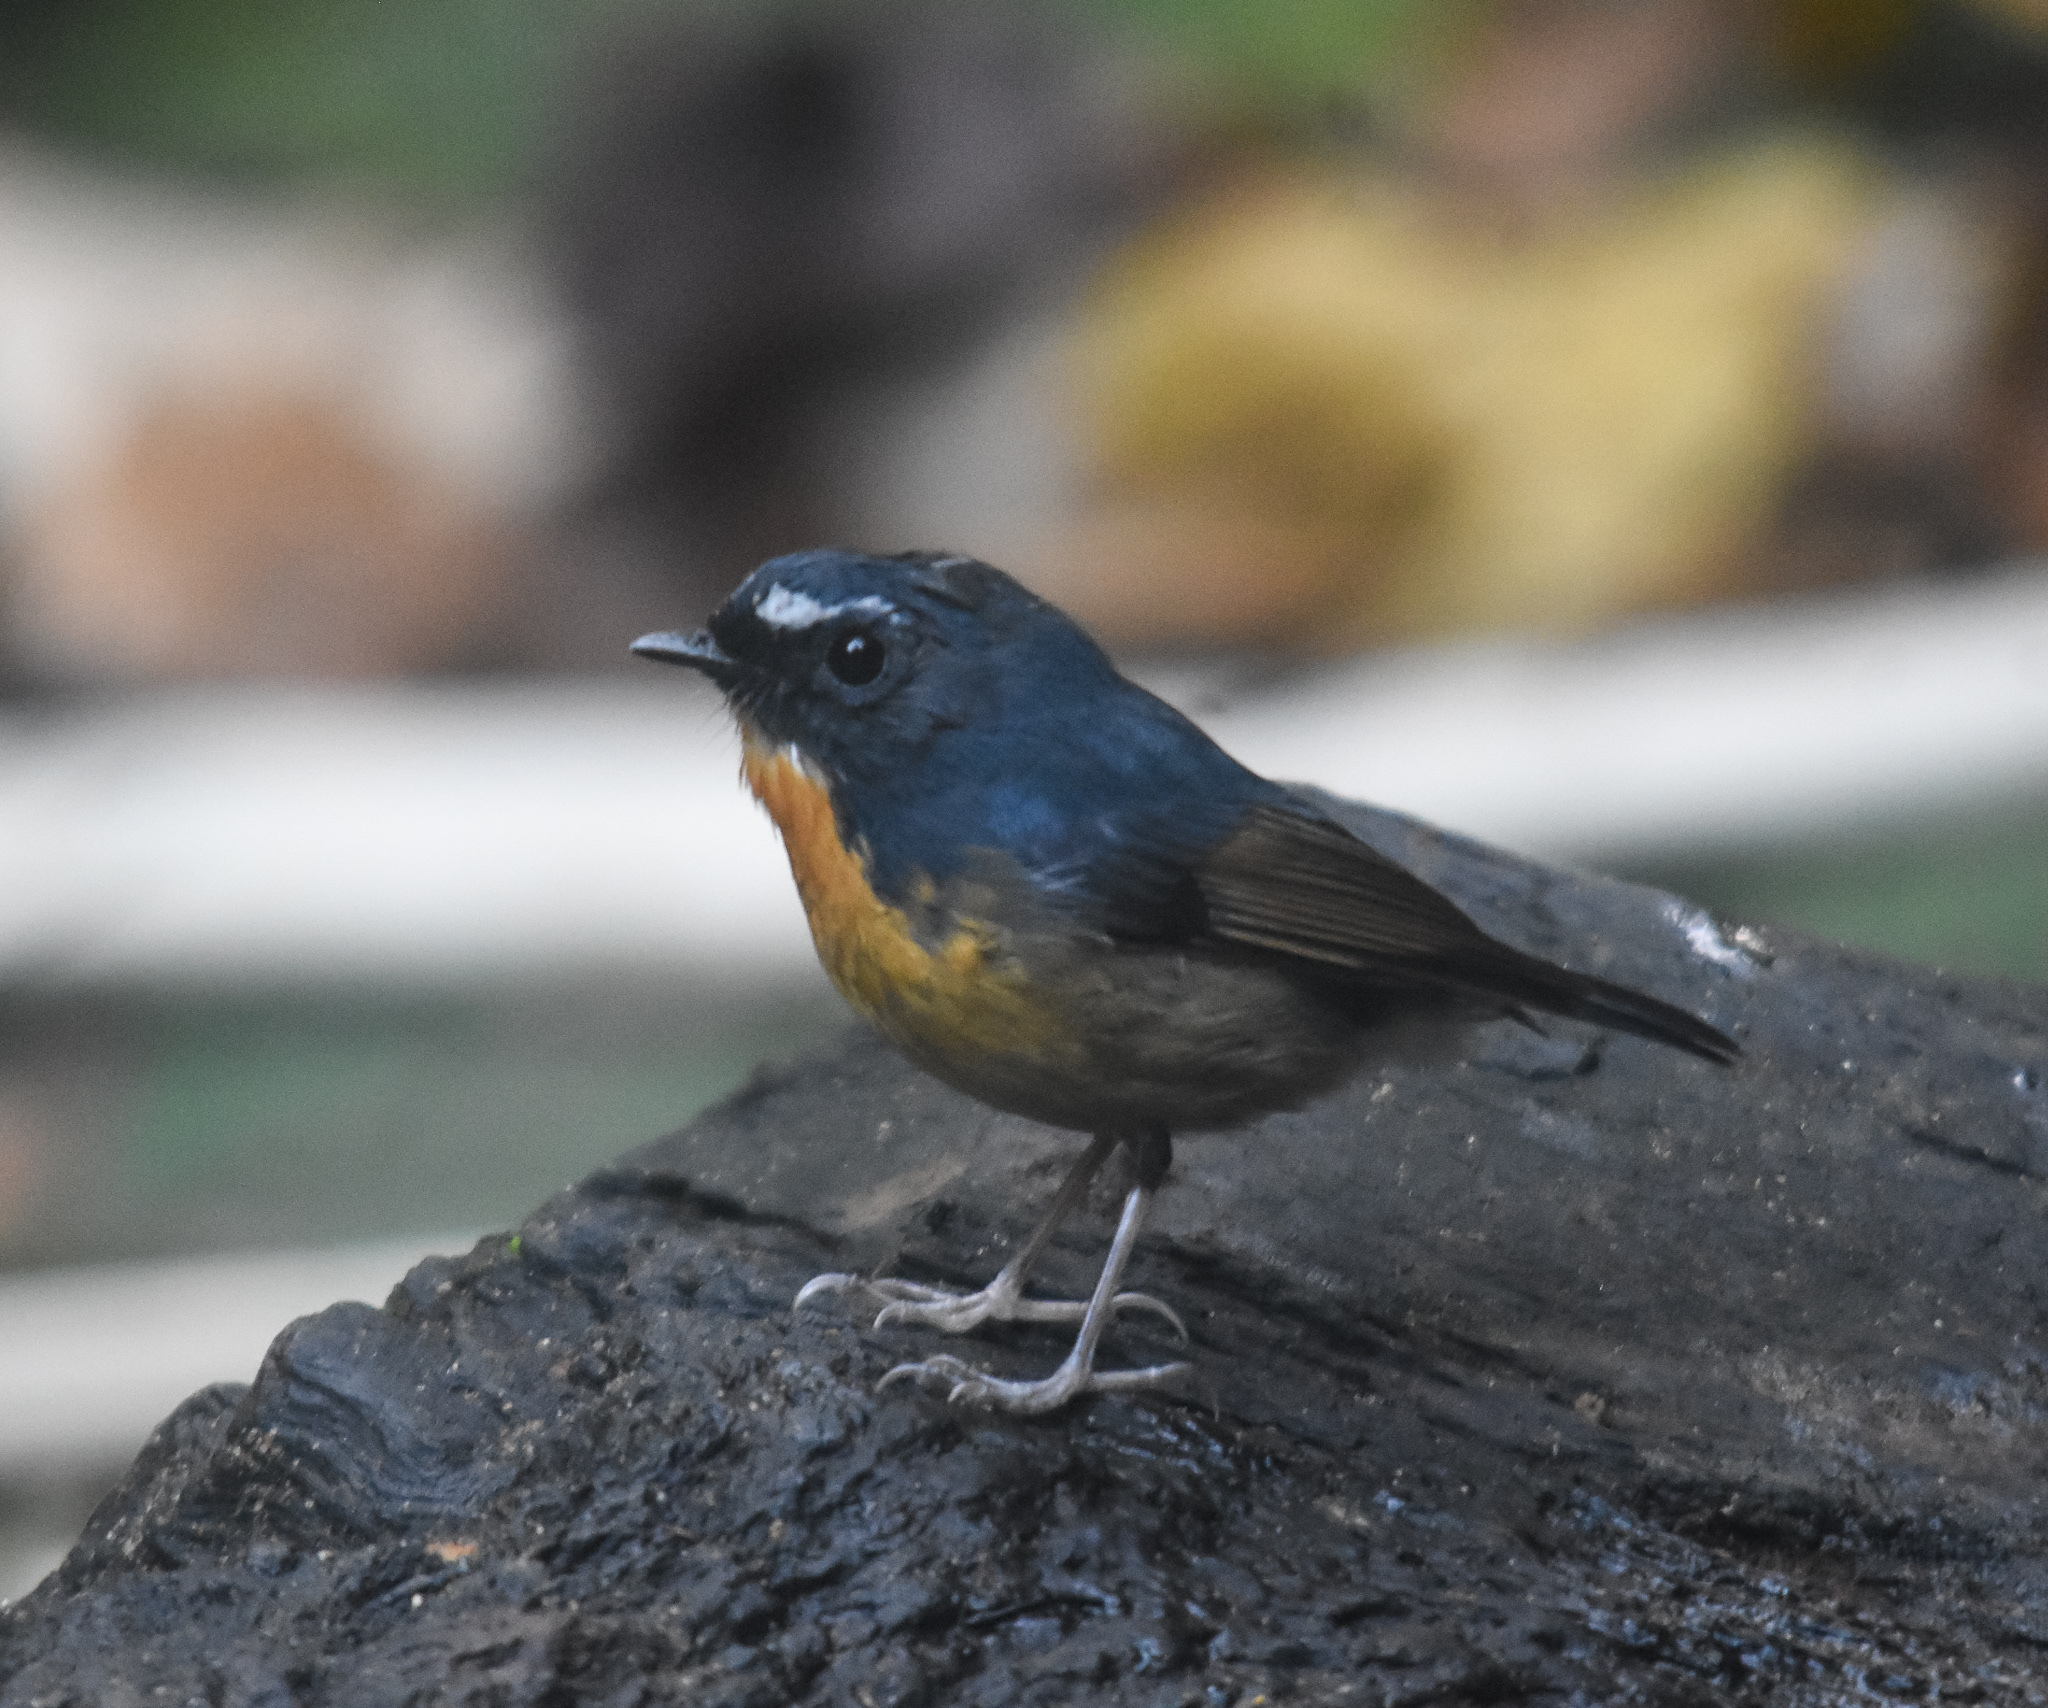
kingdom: Animalia
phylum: Chordata
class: Aves
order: Passeriformes
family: Muscicapidae
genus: Ficedula
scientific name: Ficedula hyperythra
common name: Snowy-browed flycatcher
